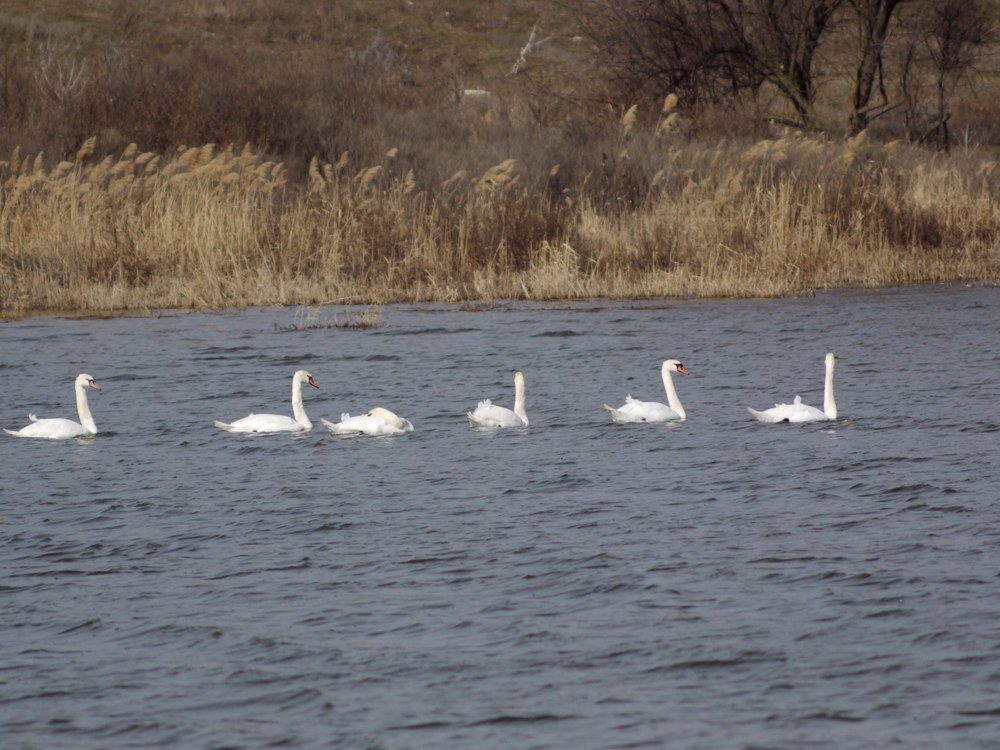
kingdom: Animalia
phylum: Chordata
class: Aves
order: Anseriformes
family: Anatidae
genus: Cygnus
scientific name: Cygnus olor
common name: Mute swan
